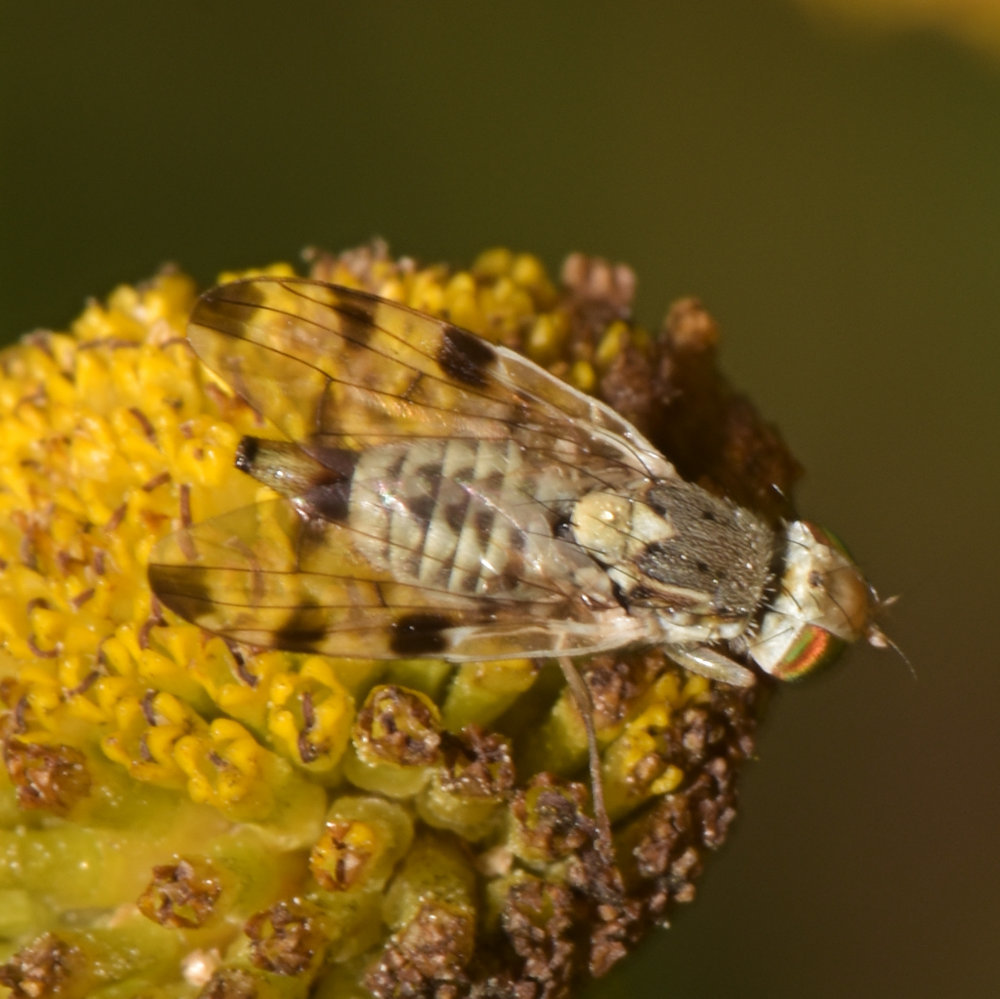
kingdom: Animalia
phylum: Arthropoda
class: Insecta
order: Diptera
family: Tephritidae
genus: Terellia
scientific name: Terellia ruficauda
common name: Root-maggot fly
